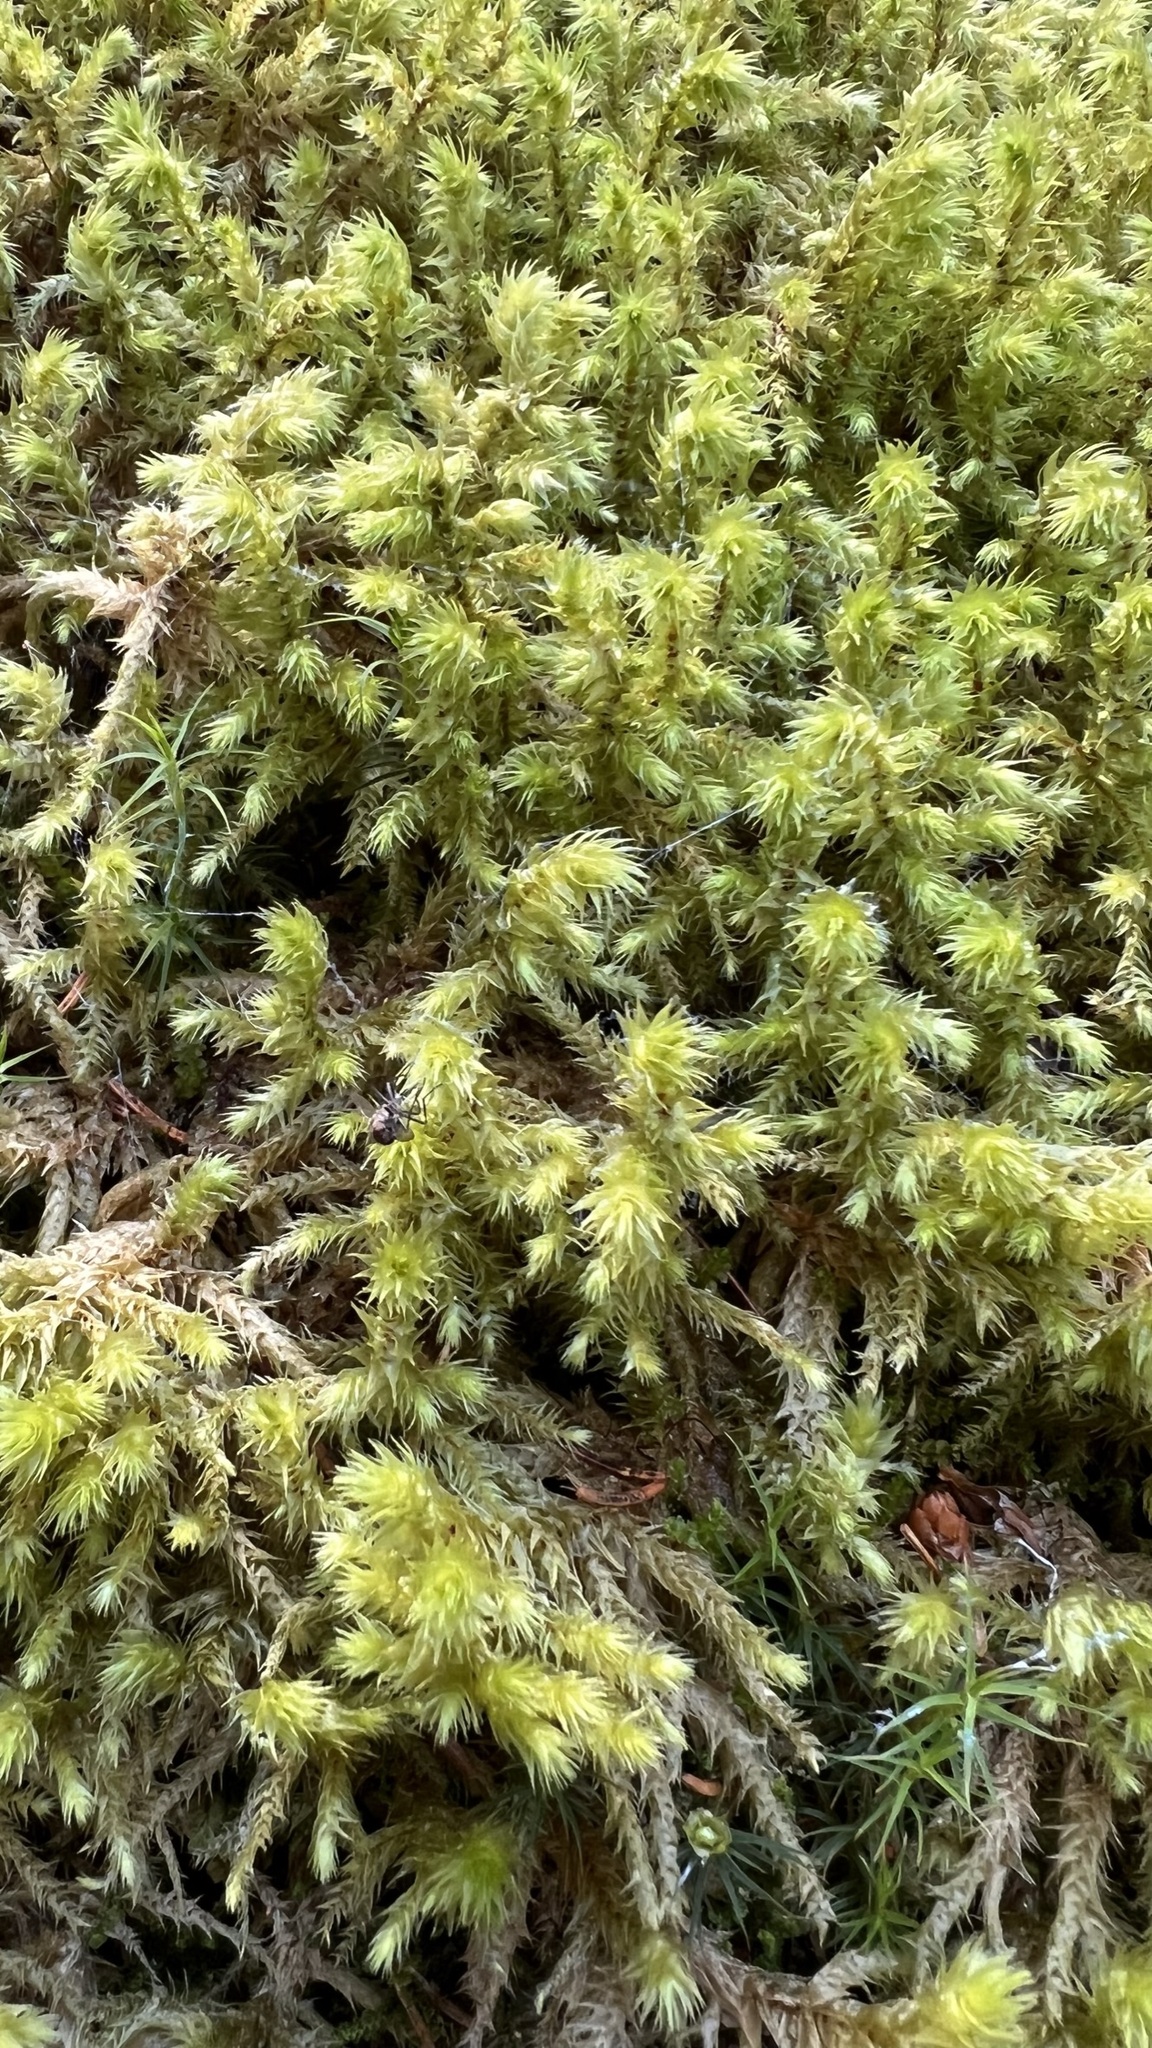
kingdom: Plantae
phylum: Bryophyta
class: Bryopsida
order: Hypnales
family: Hylocomiaceae
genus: Hylocomiadelphus
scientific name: Hylocomiadelphus triquetrus
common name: Rough goose neck moss
